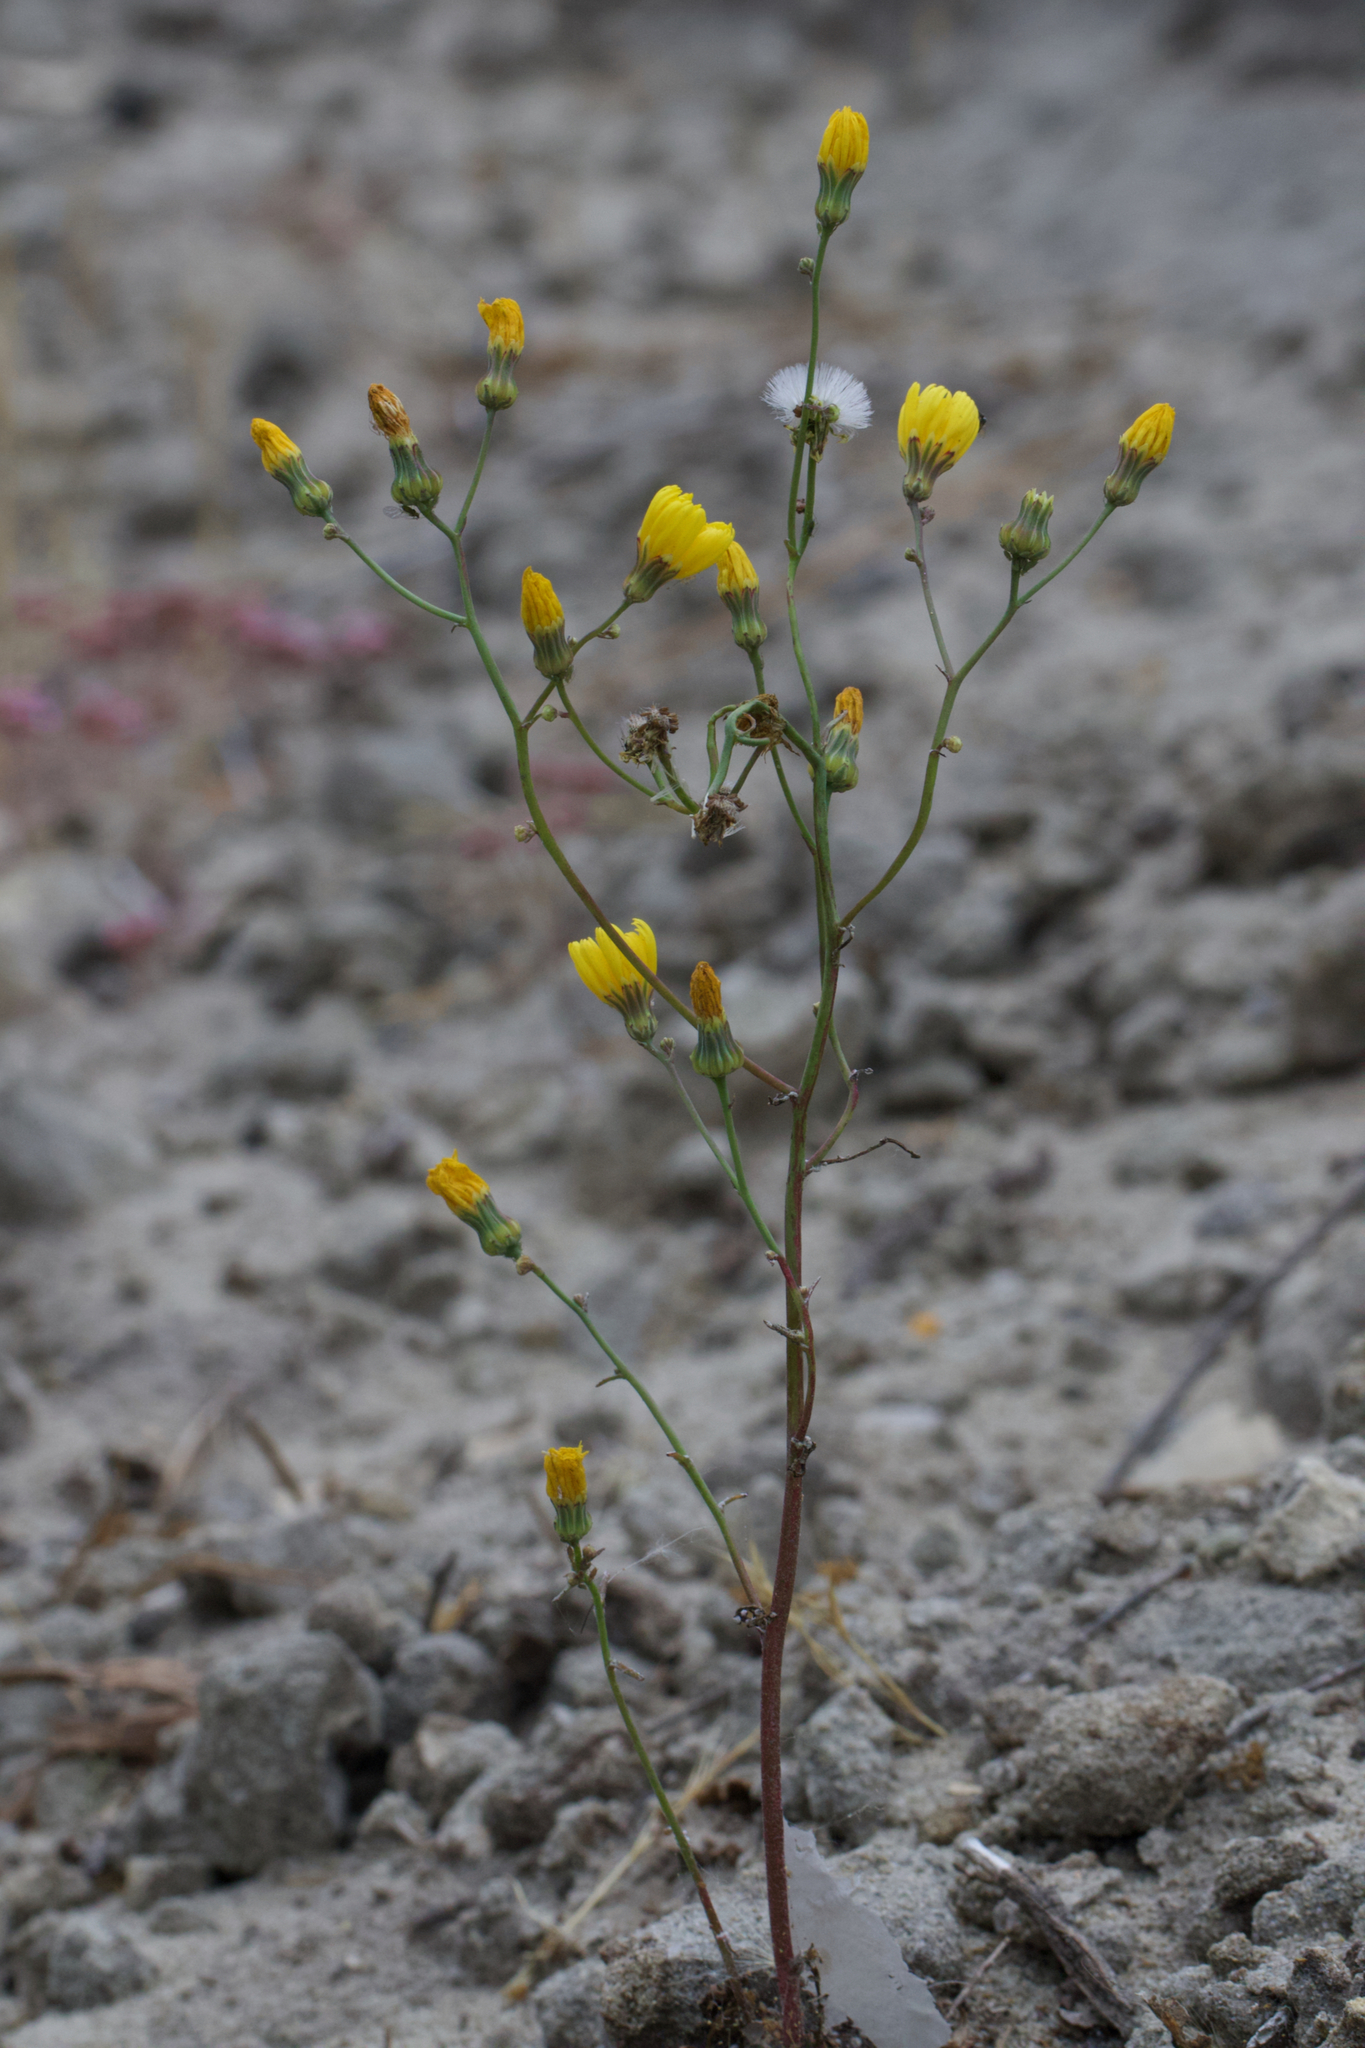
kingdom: Plantae
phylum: Tracheophyta
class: Magnoliopsida
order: Asterales
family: Asteraceae
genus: Malacothrix
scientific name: Malacothrix floccifera
